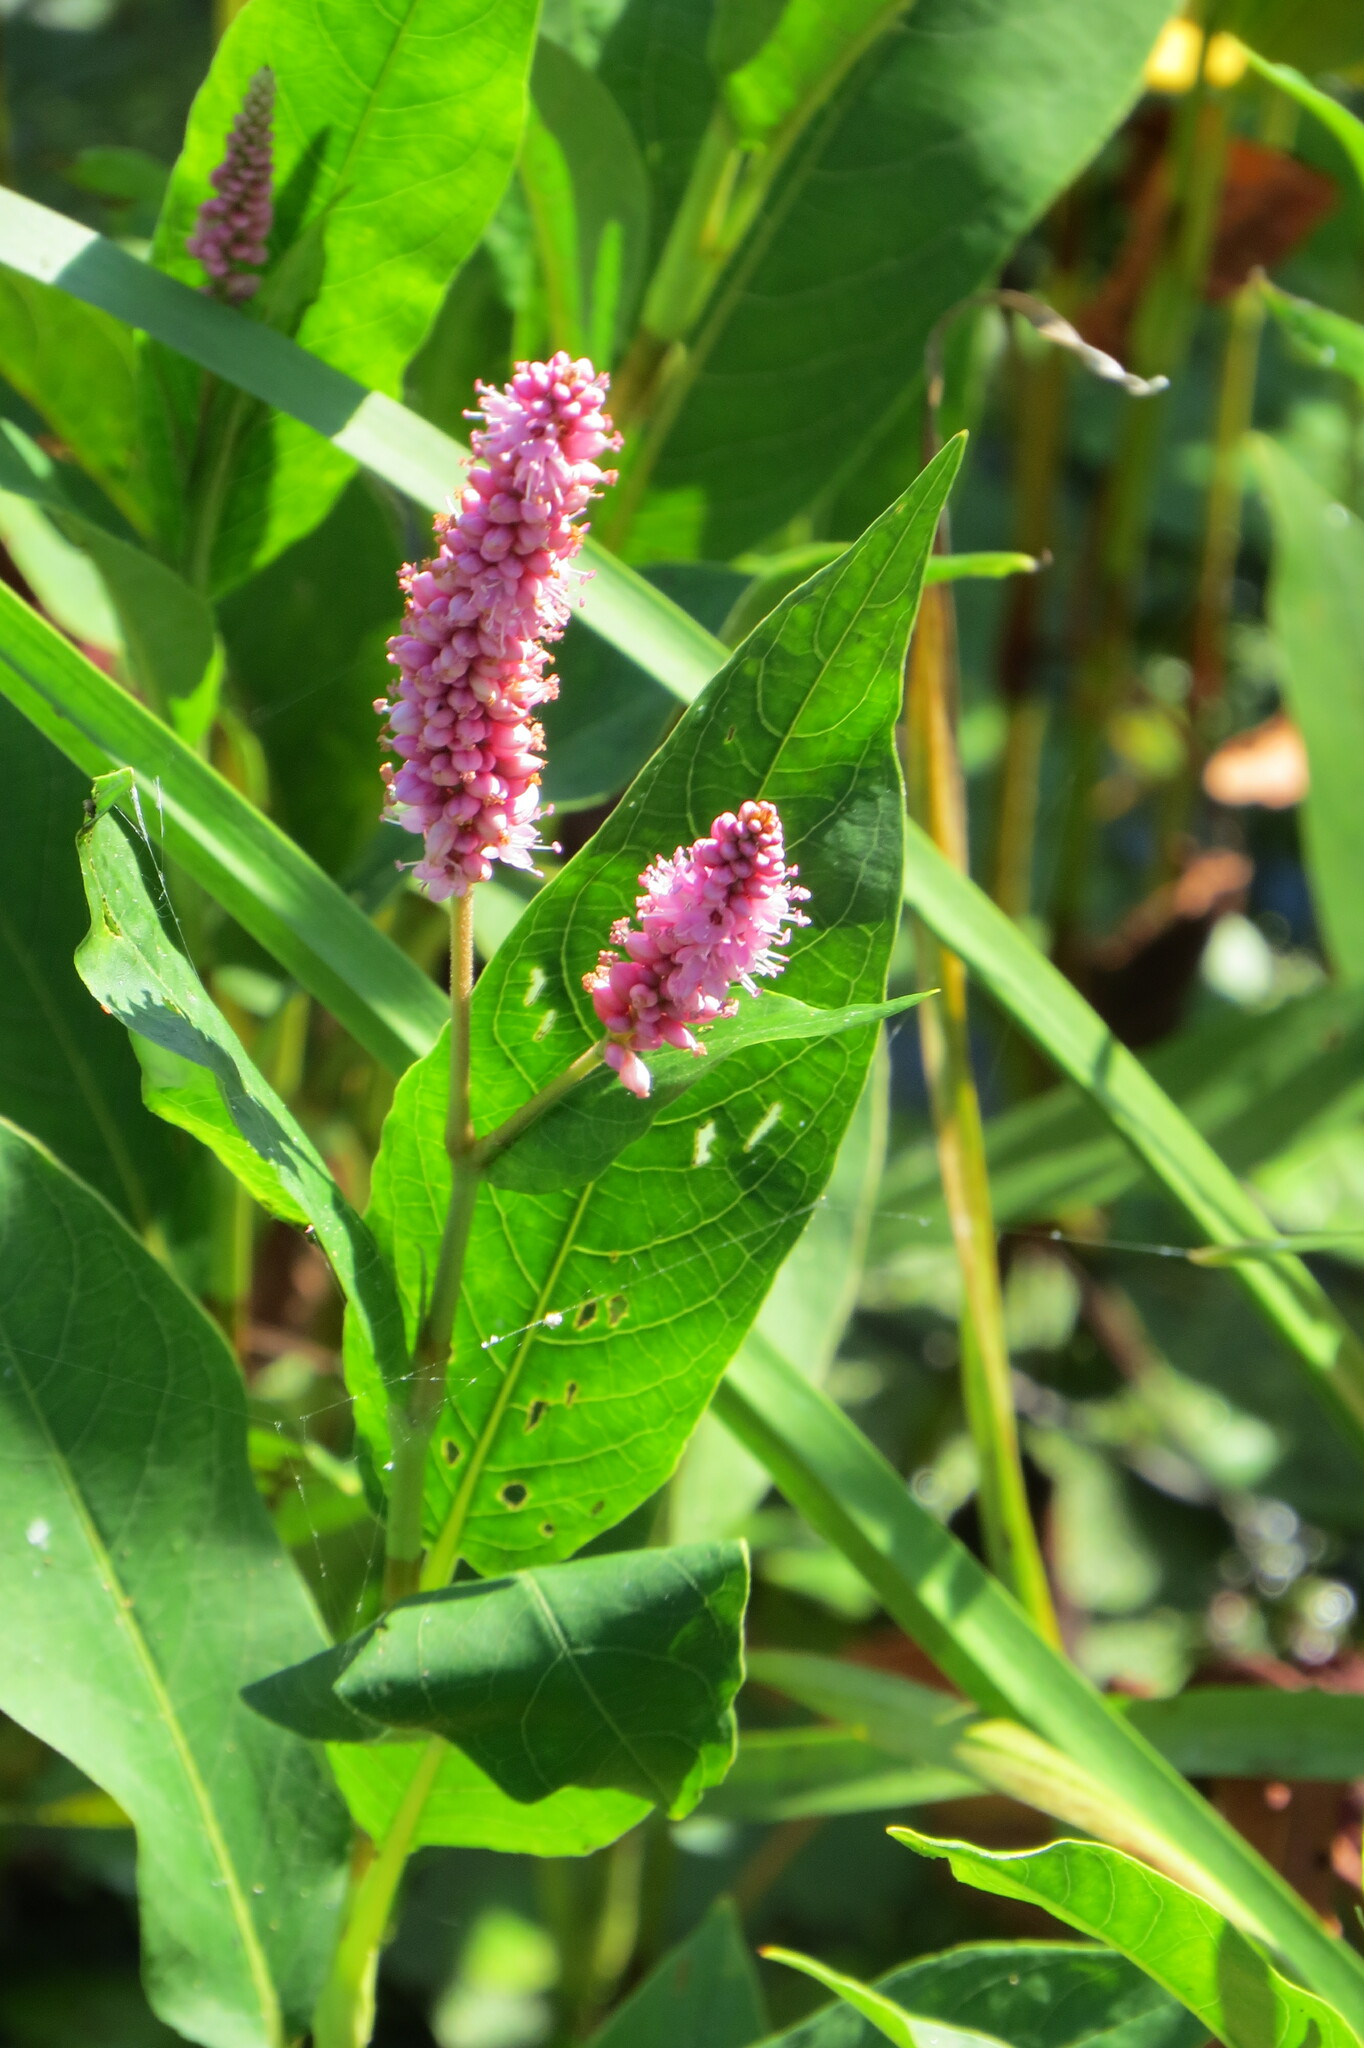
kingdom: Plantae
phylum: Tracheophyta
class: Magnoliopsida
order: Caryophyllales
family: Polygonaceae
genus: Persicaria
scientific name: Persicaria amphibia
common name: Amphibious bistort
